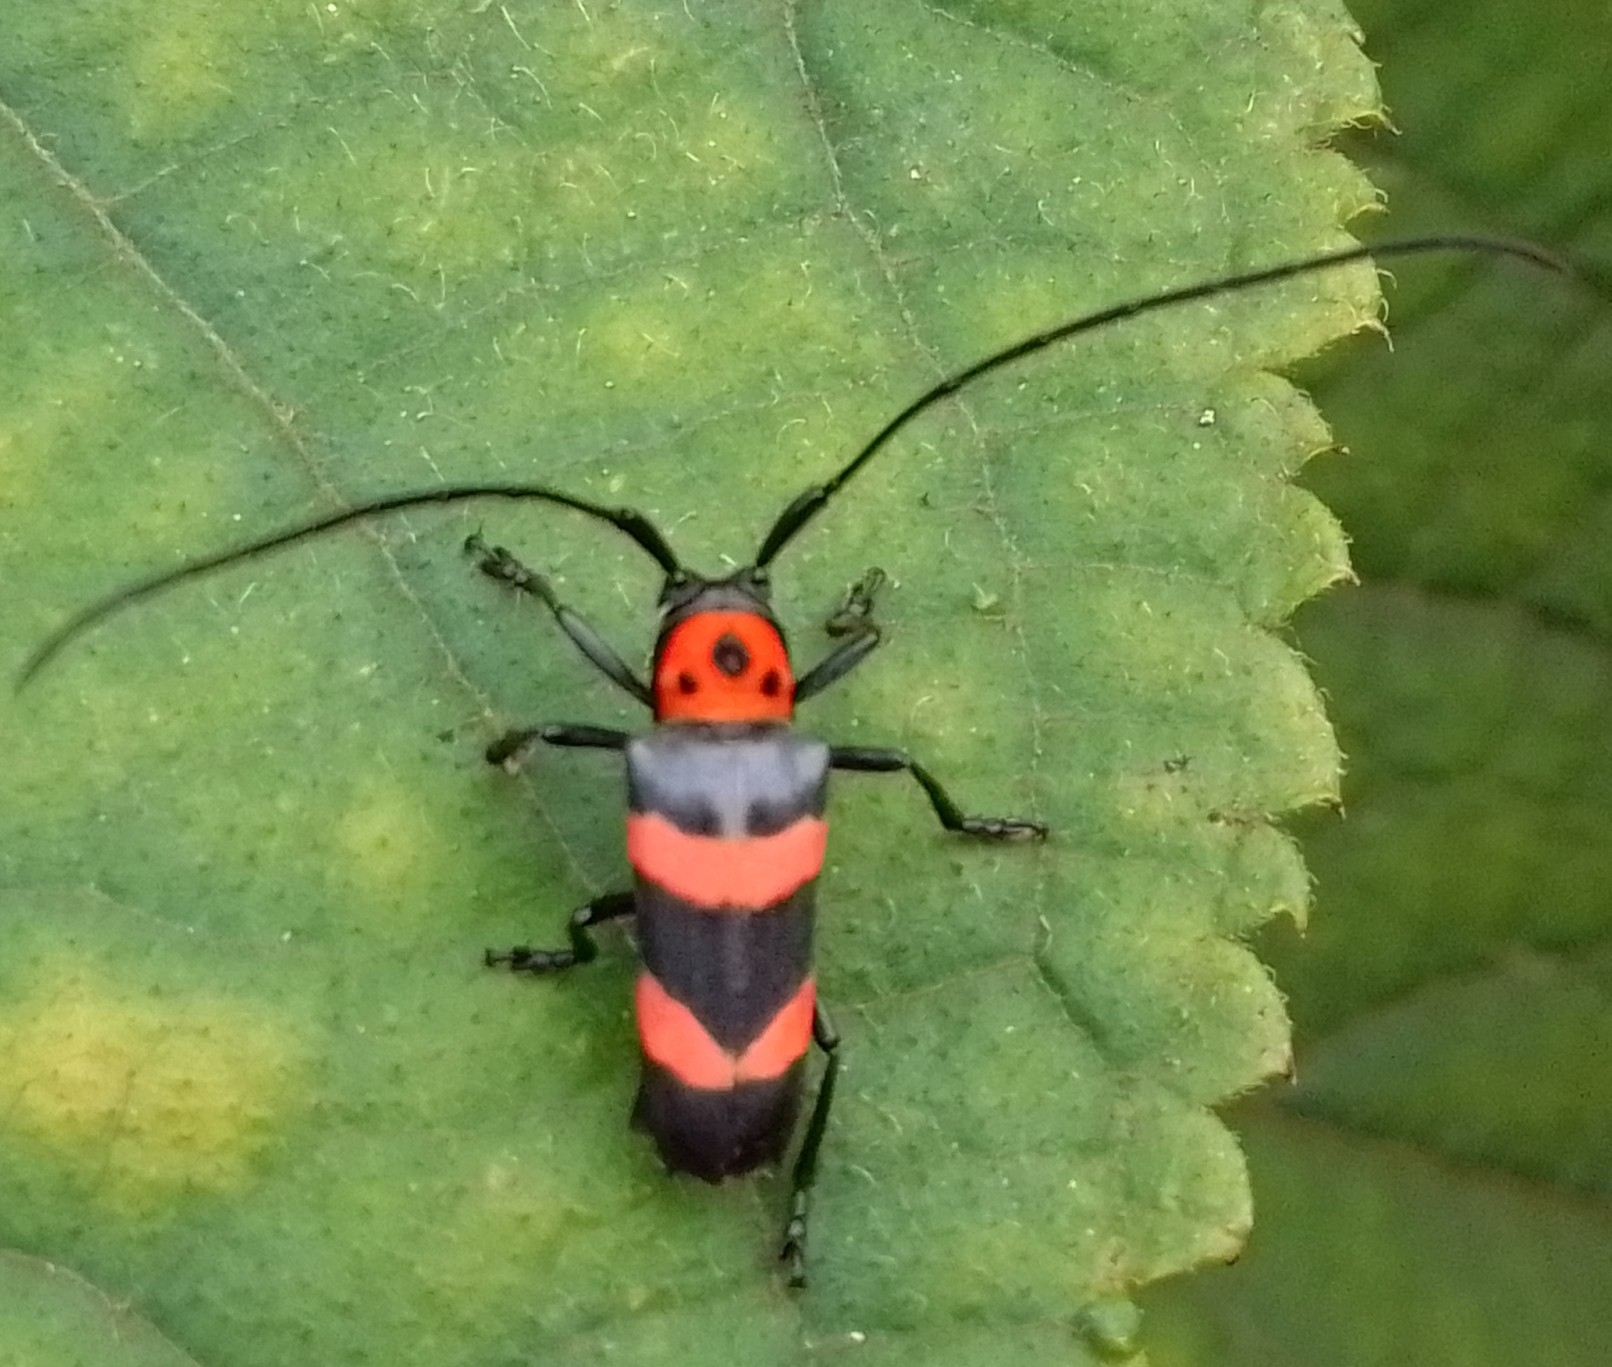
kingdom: Animalia
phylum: Arthropoda
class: Insecta
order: Coleoptera
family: Cerambycidae
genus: Oedudes
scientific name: Oedudes bifasciatus
